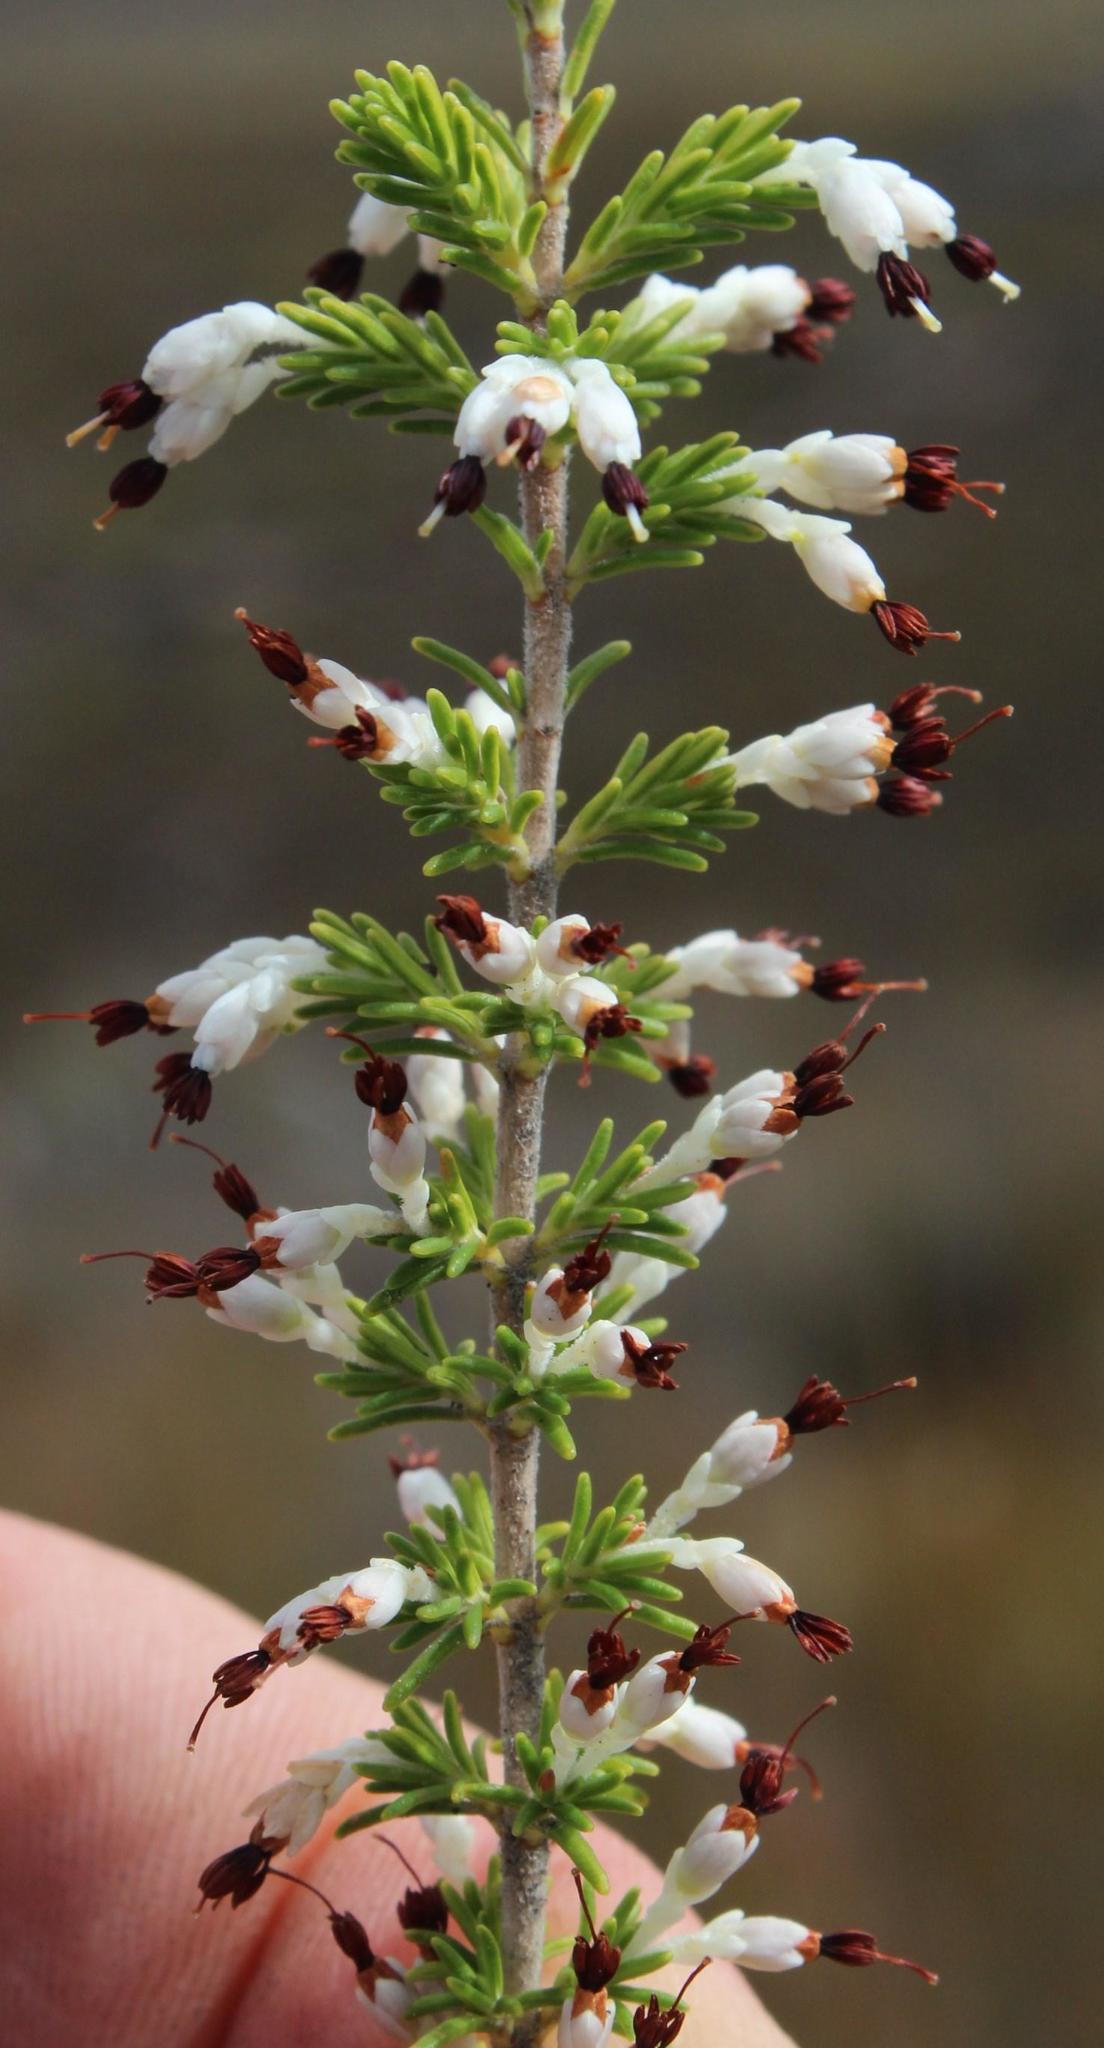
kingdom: Plantae
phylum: Tracheophyta
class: Magnoliopsida
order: Ericales
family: Ericaceae
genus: Erica
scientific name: Erica imbricata
